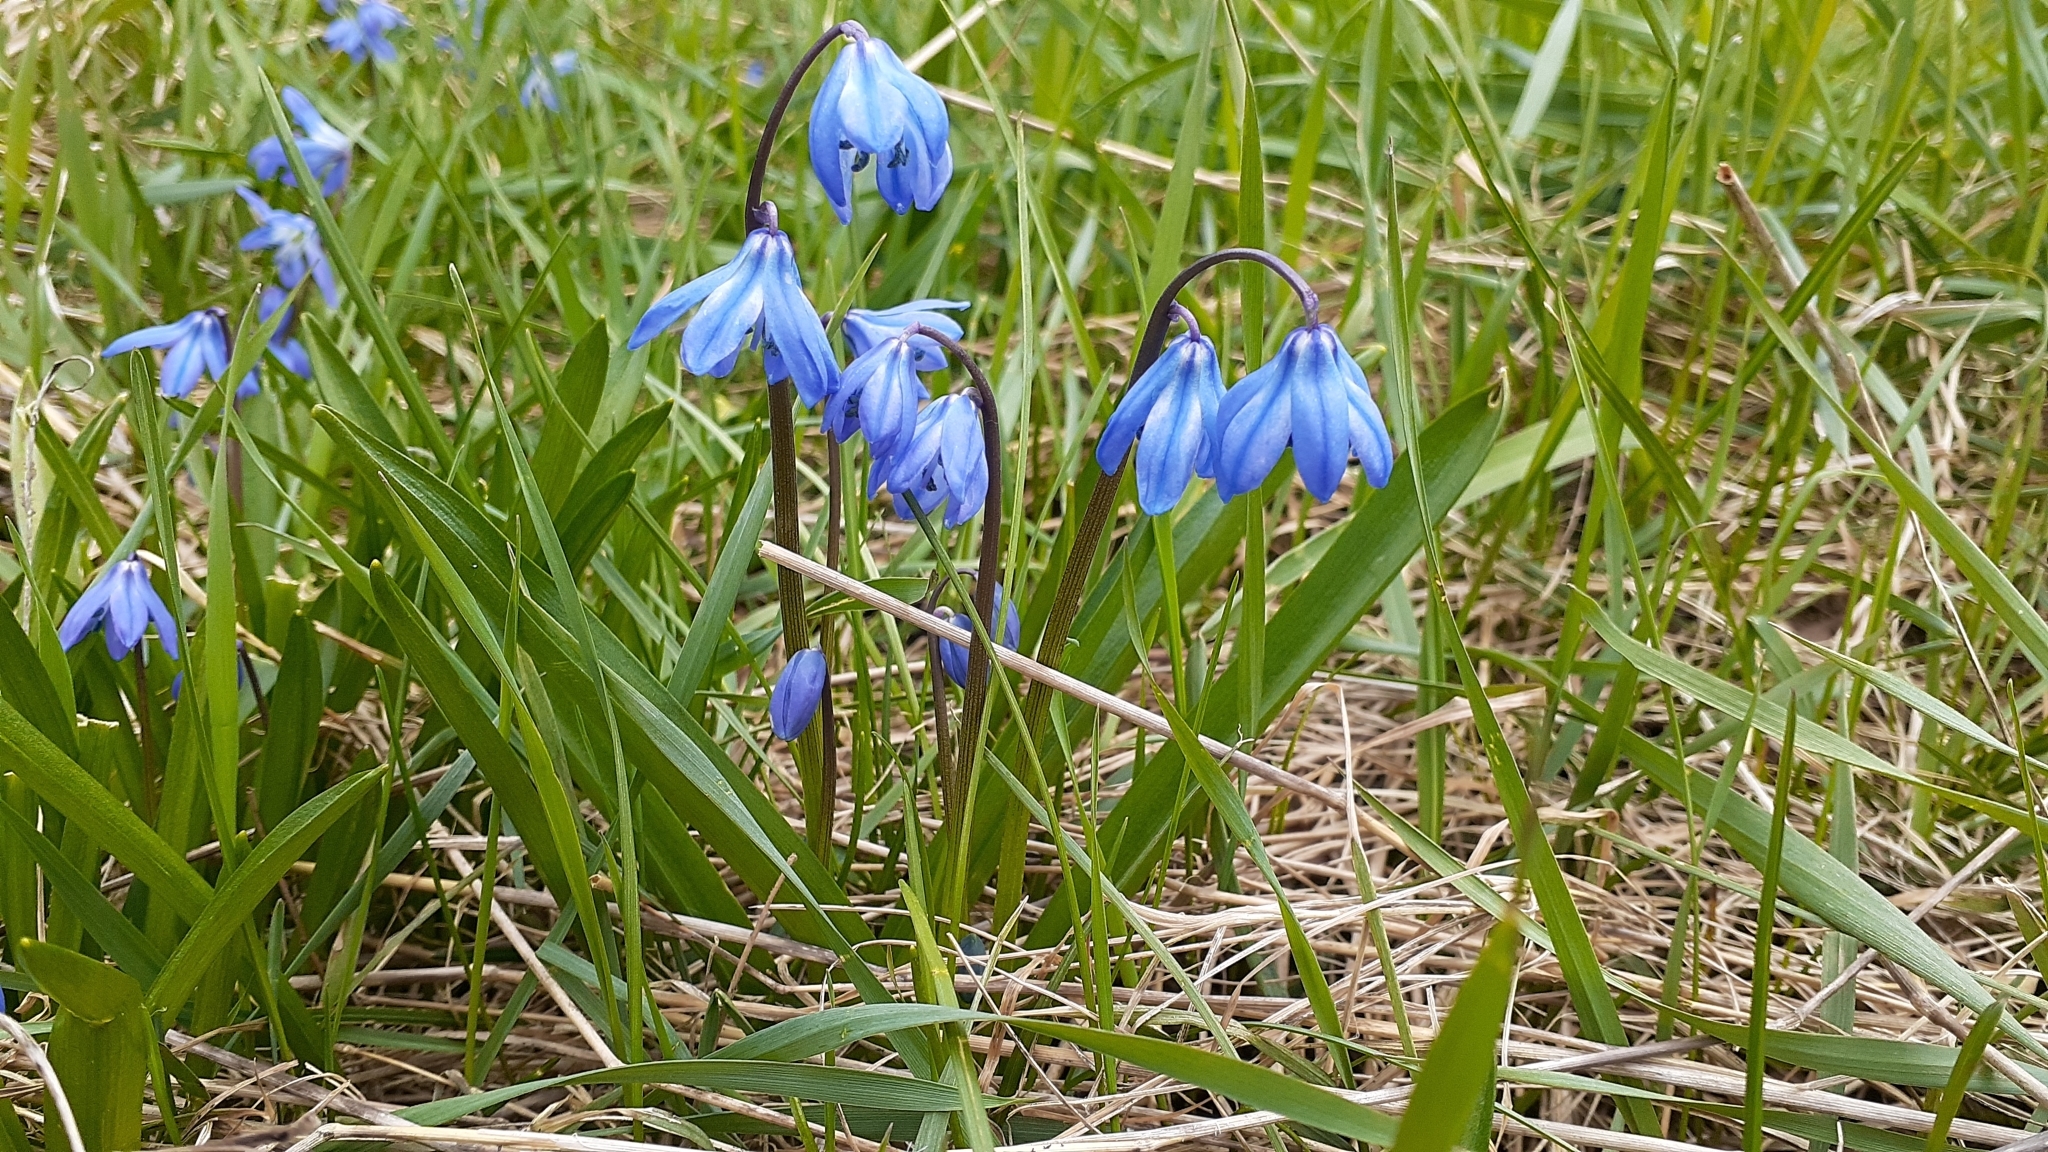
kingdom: Plantae
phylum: Tracheophyta
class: Liliopsida
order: Asparagales
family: Asparagaceae
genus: Scilla
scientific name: Scilla siberica
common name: Siberian squill
